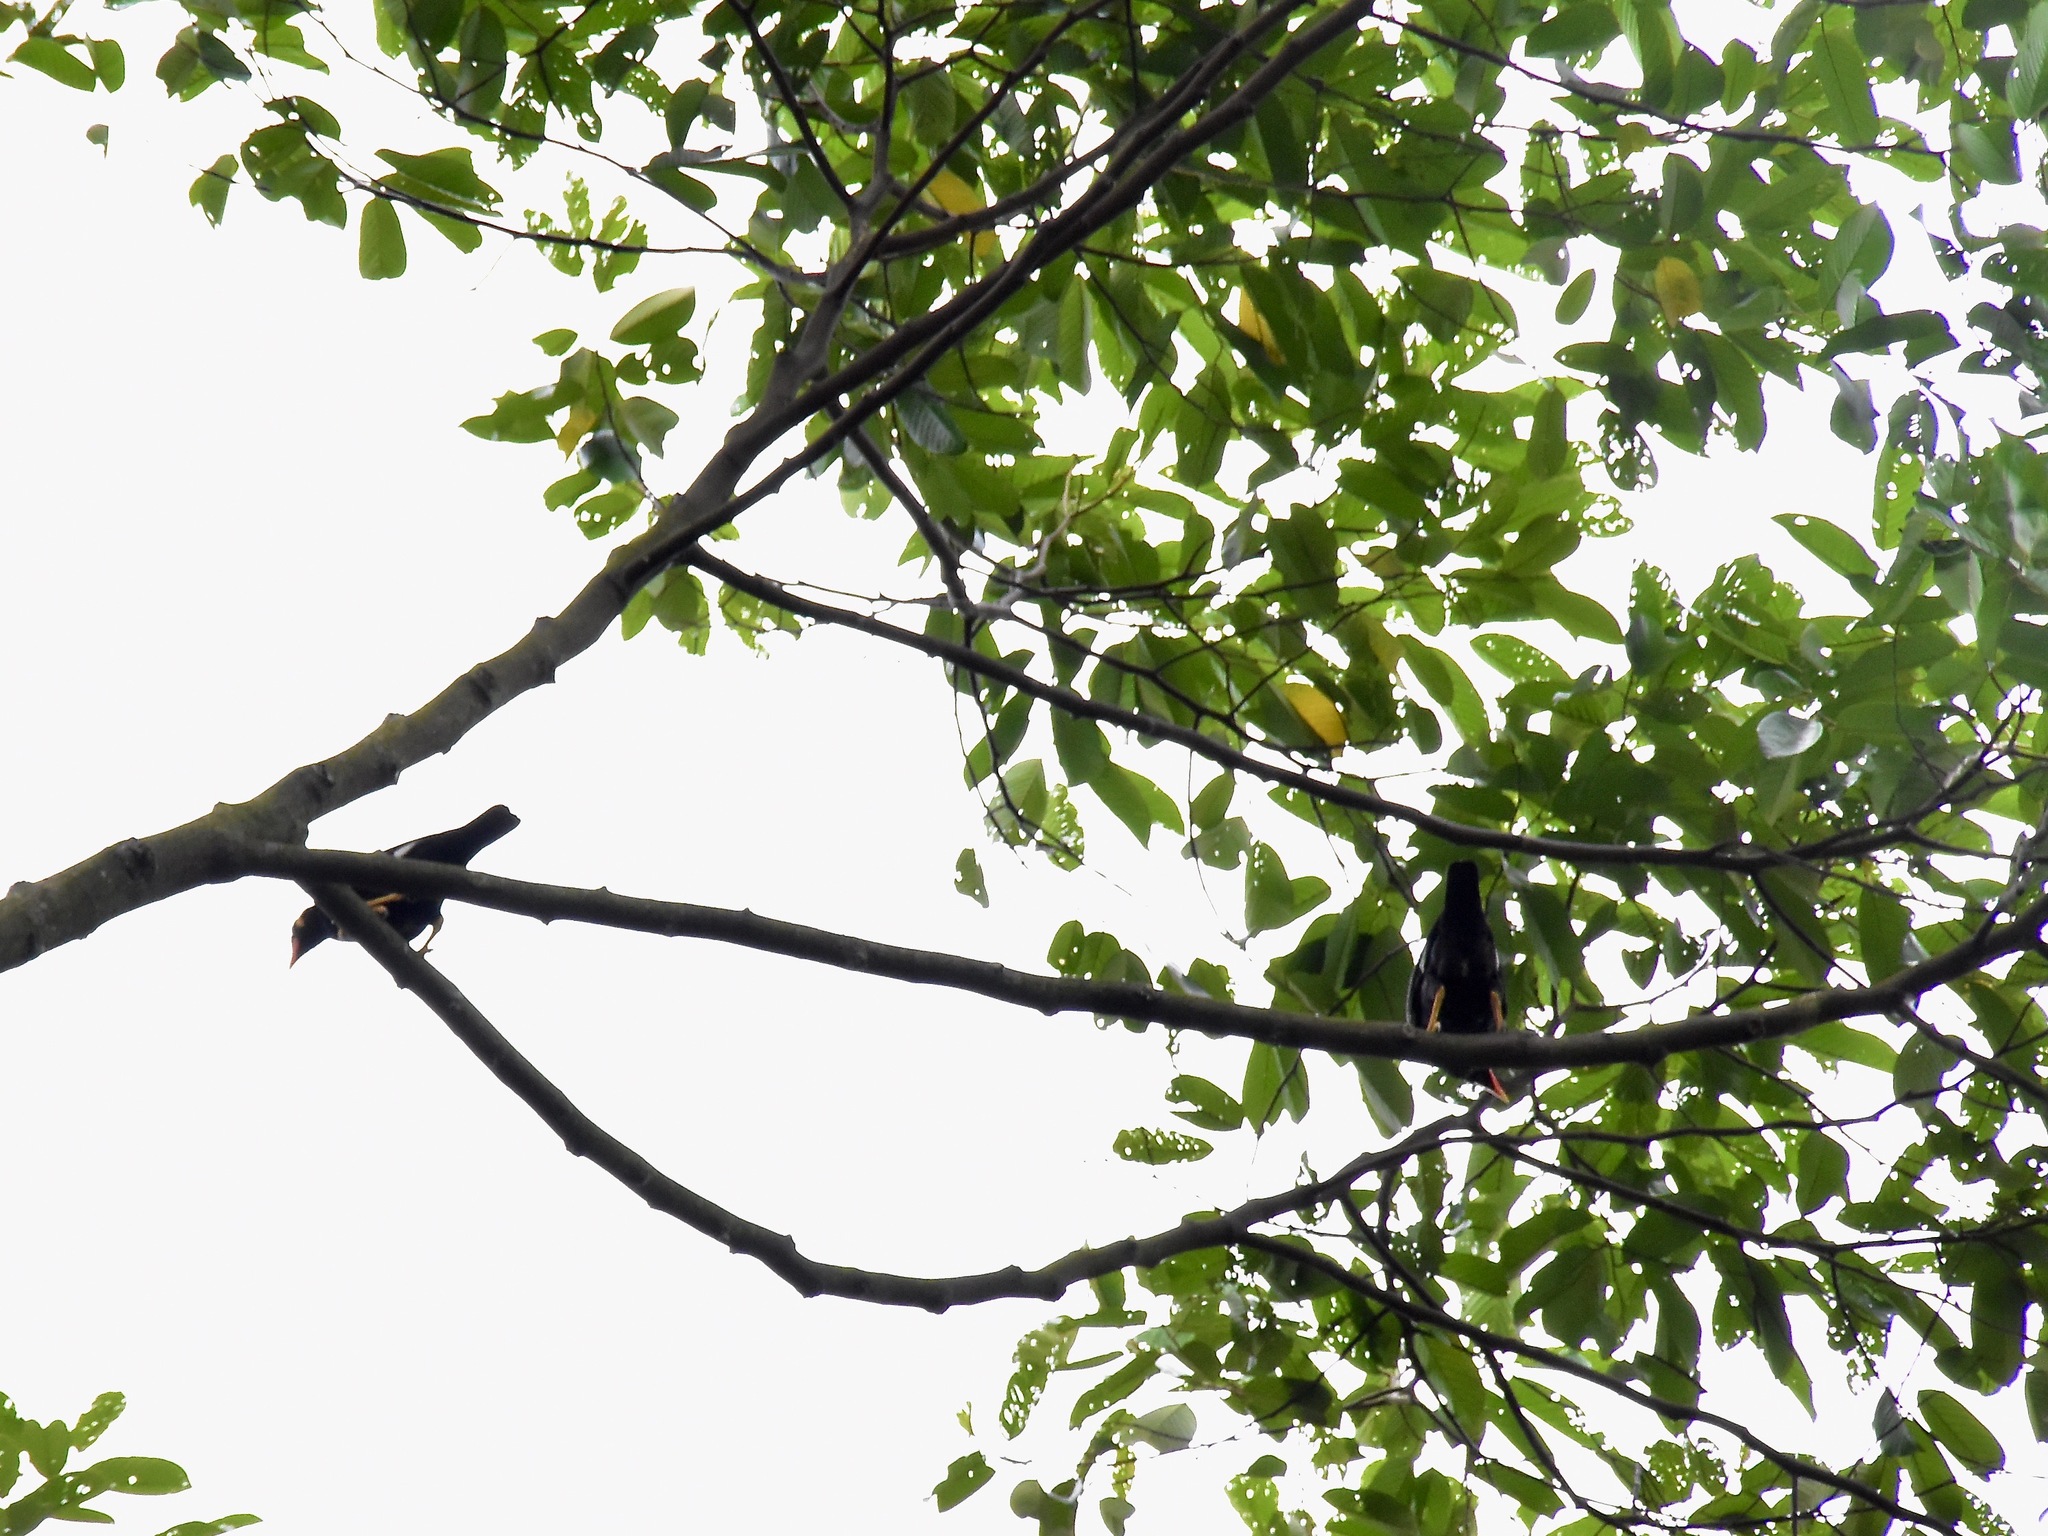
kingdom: Animalia
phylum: Chordata
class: Aves
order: Passeriformes
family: Sturnidae
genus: Gracula
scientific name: Gracula religiosa
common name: Common hill myna
